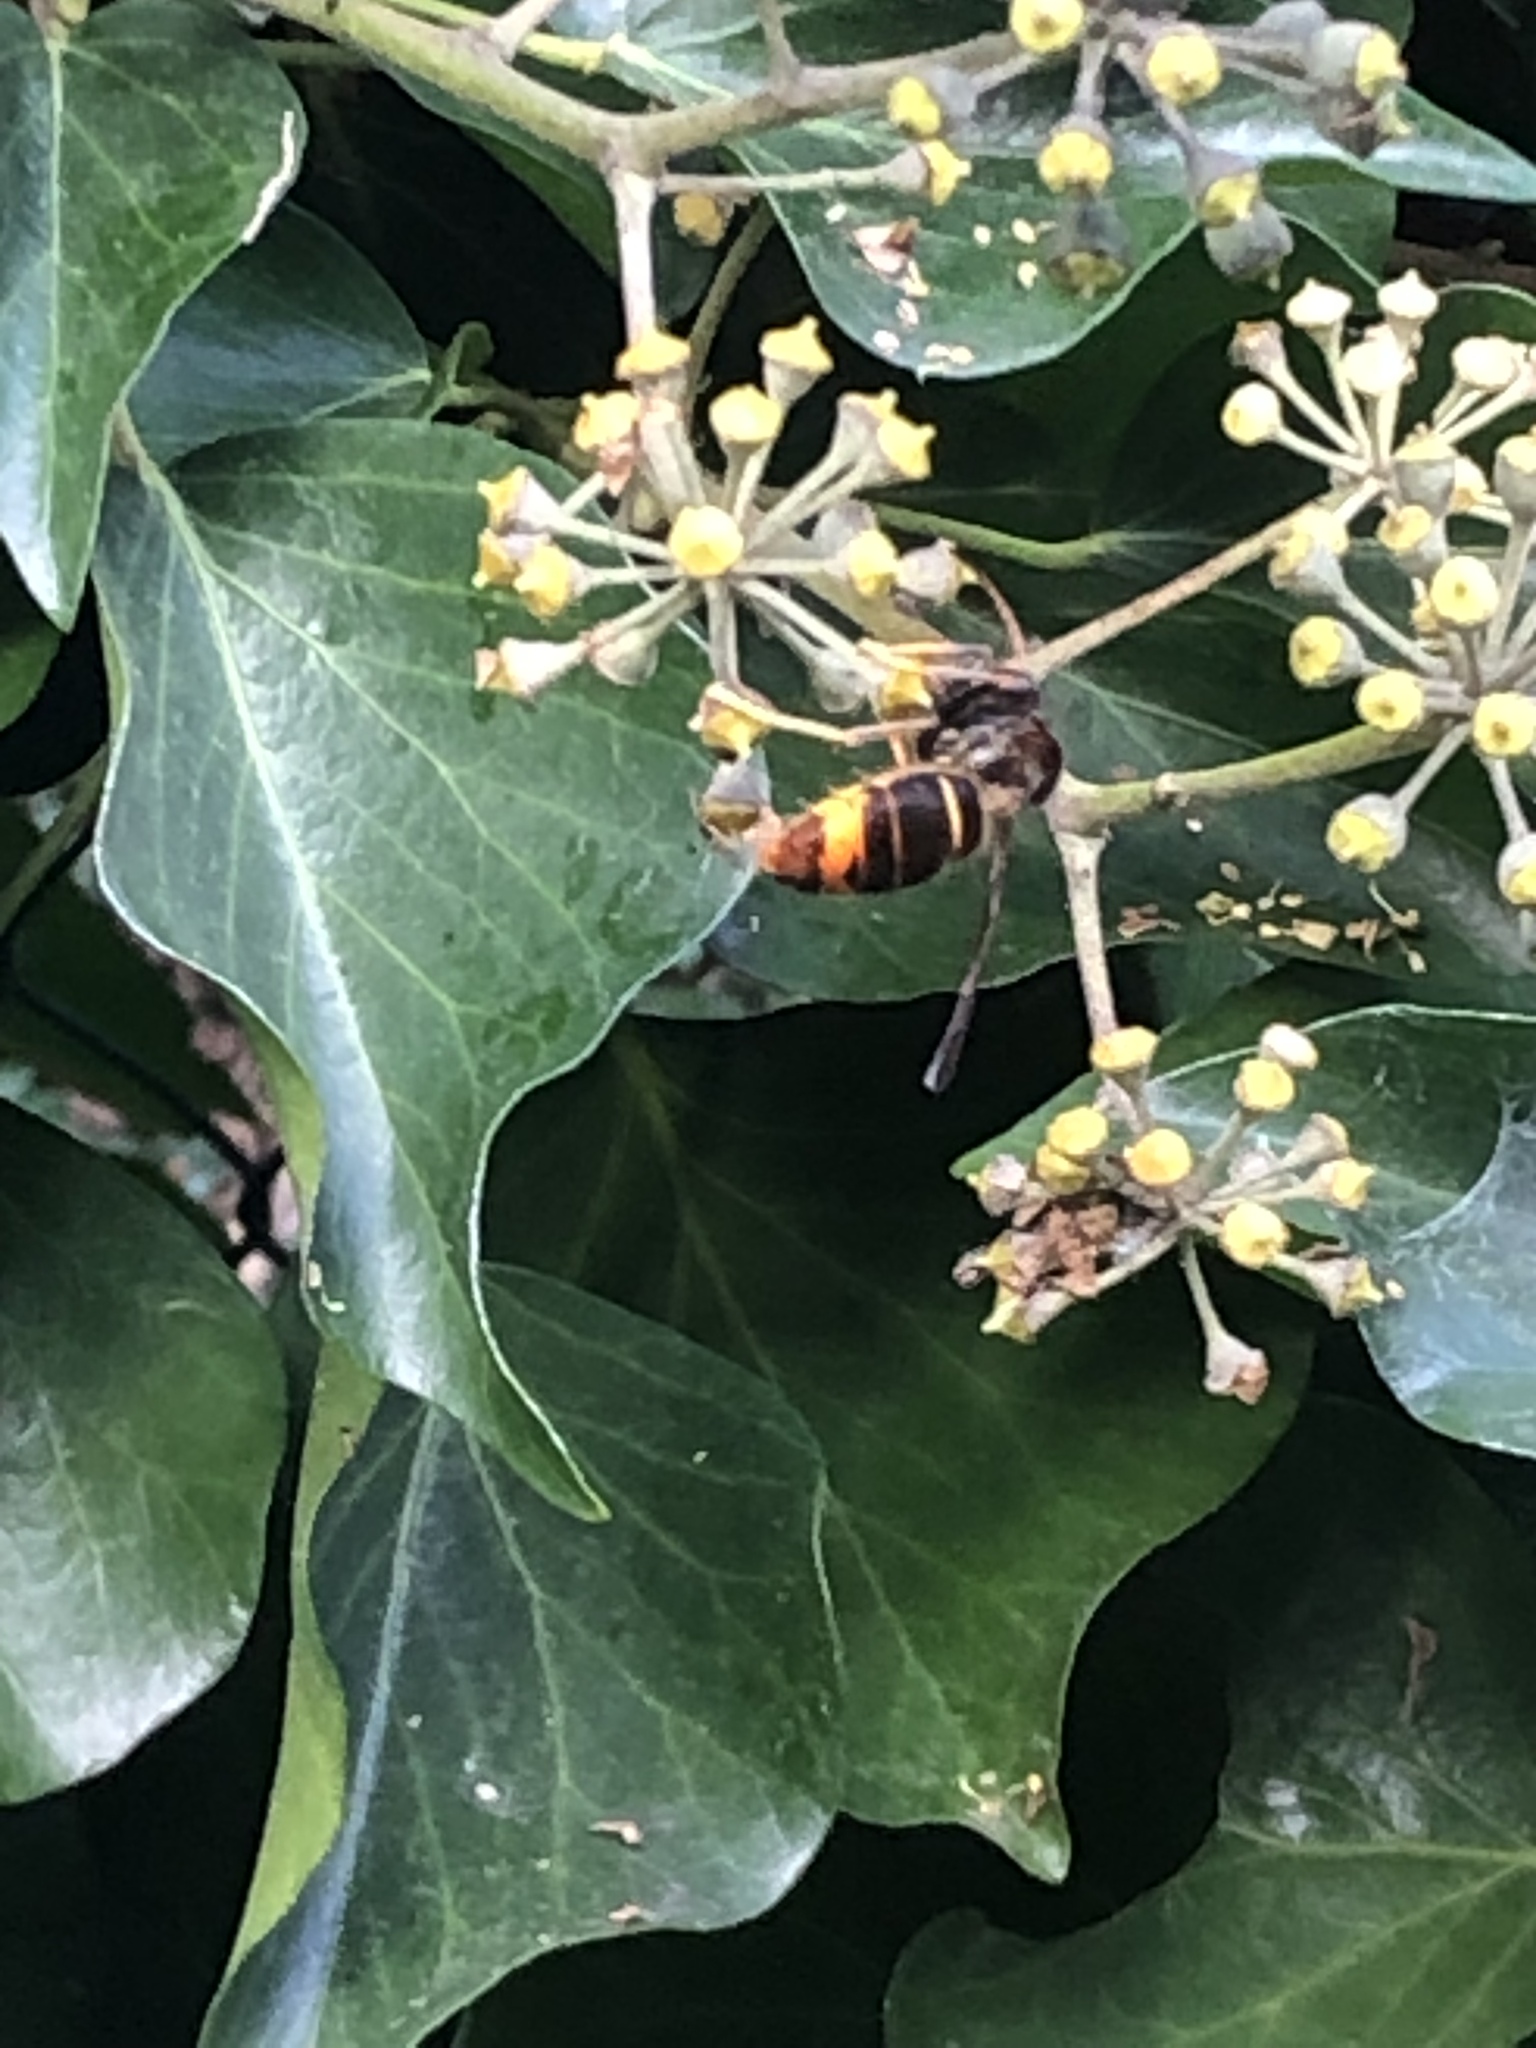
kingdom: Animalia
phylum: Arthropoda
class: Insecta
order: Hymenoptera
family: Vespidae
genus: Vespa
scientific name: Vespa velutina
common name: Asian hornet
